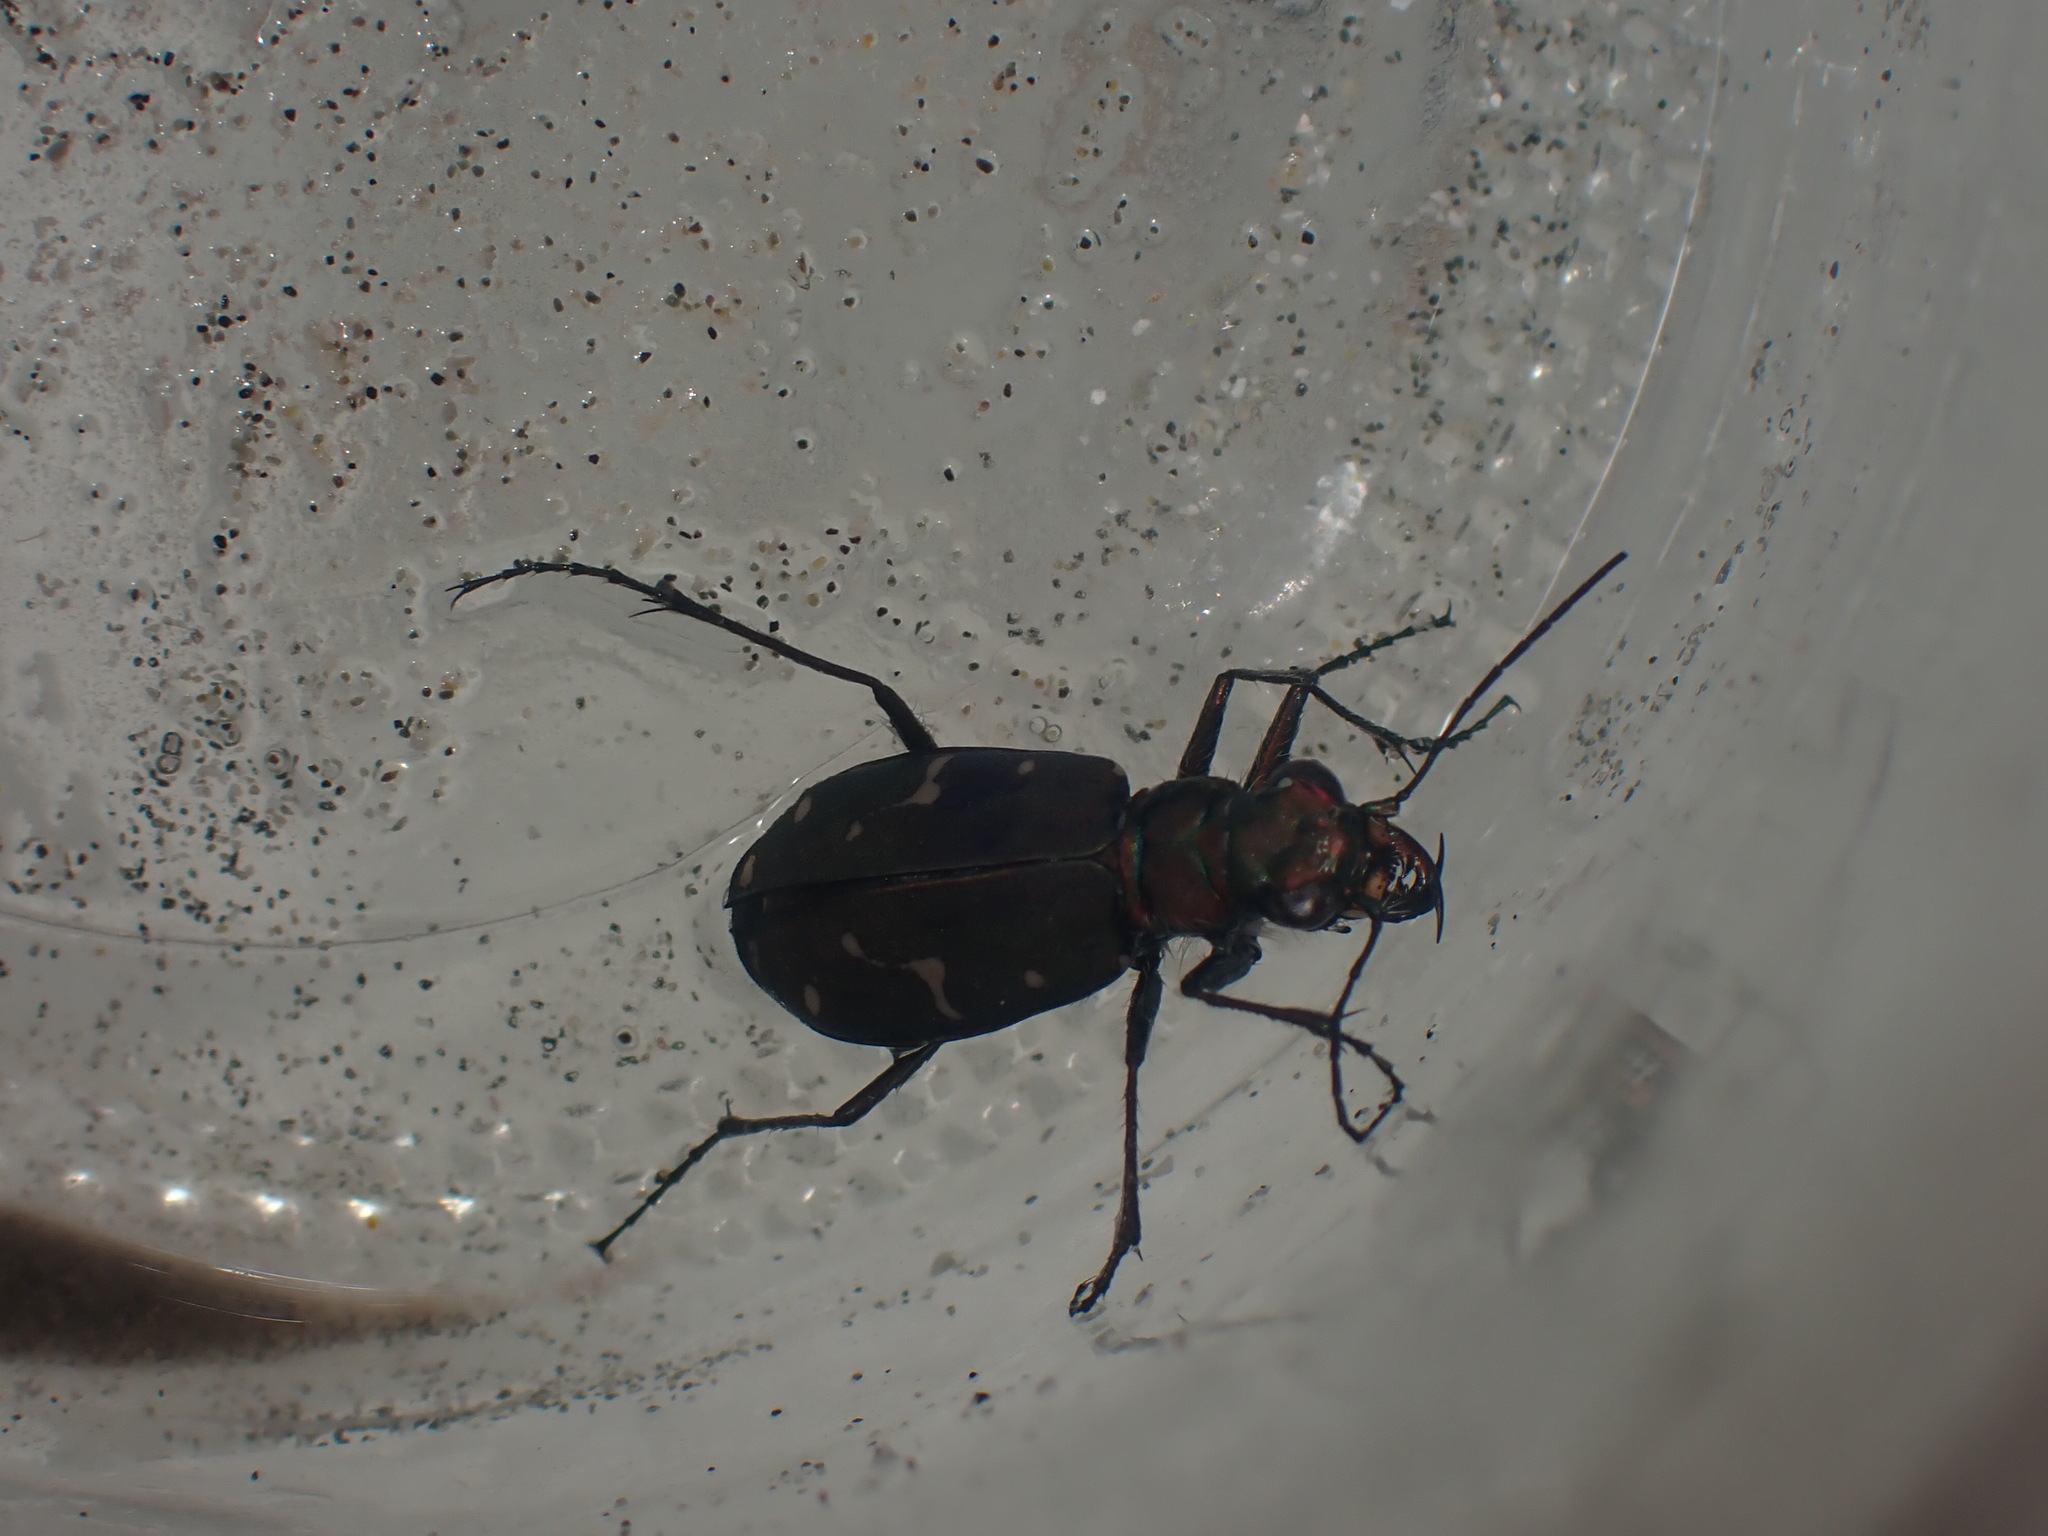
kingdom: Animalia
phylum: Arthropoda
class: Insecta
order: Coleoptera
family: Carabidae
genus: Cicindela
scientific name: Cicindela oregona
